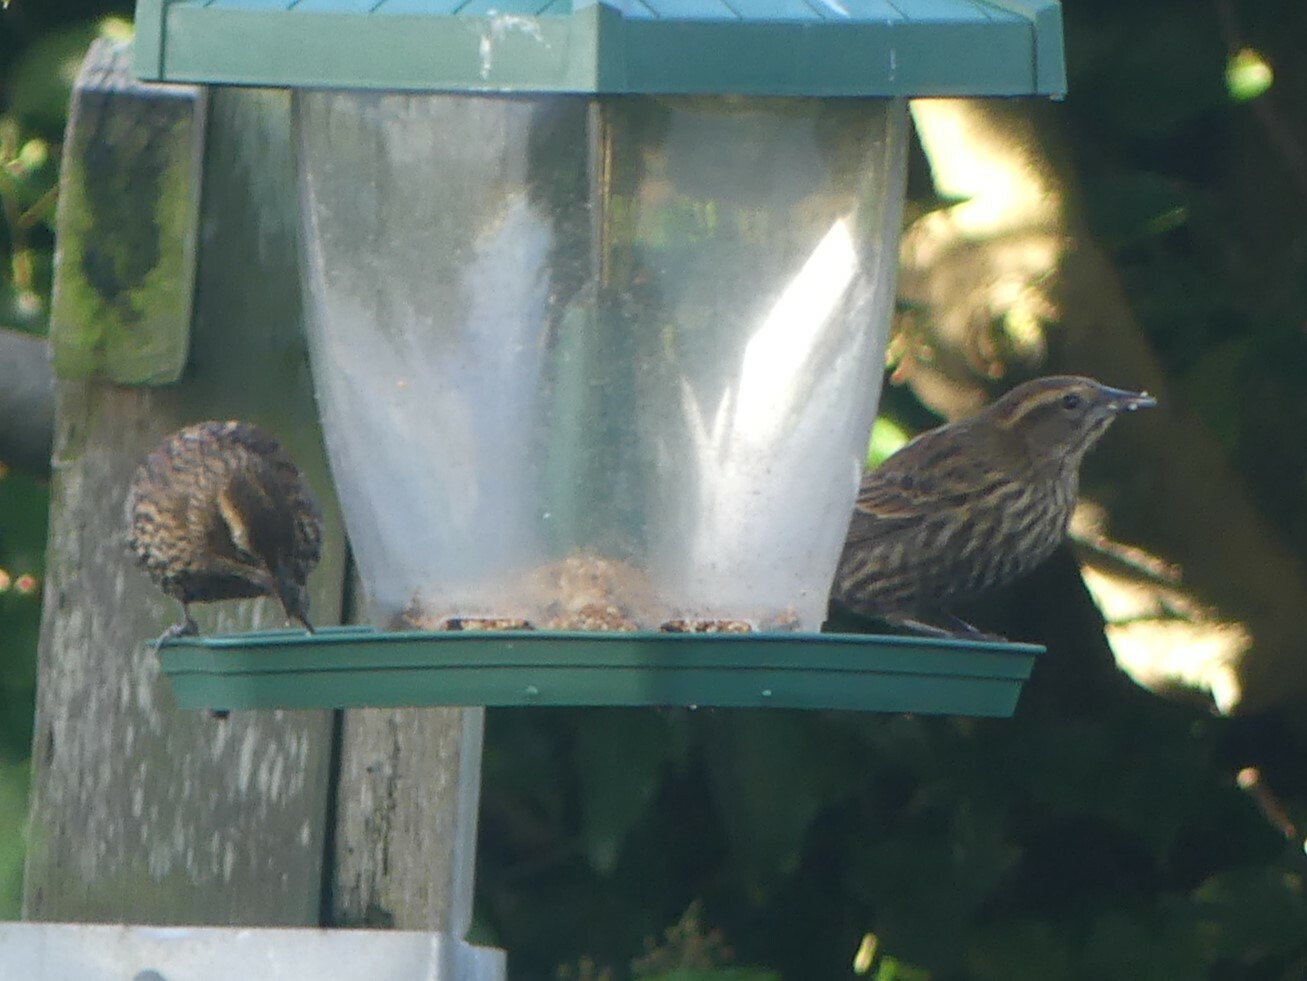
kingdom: Animalia
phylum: Chordata
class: Aves
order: Passeriformes
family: Icteridae
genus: Agelaius
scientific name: Agelaius phoeniceus
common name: Red-winged blackbird
